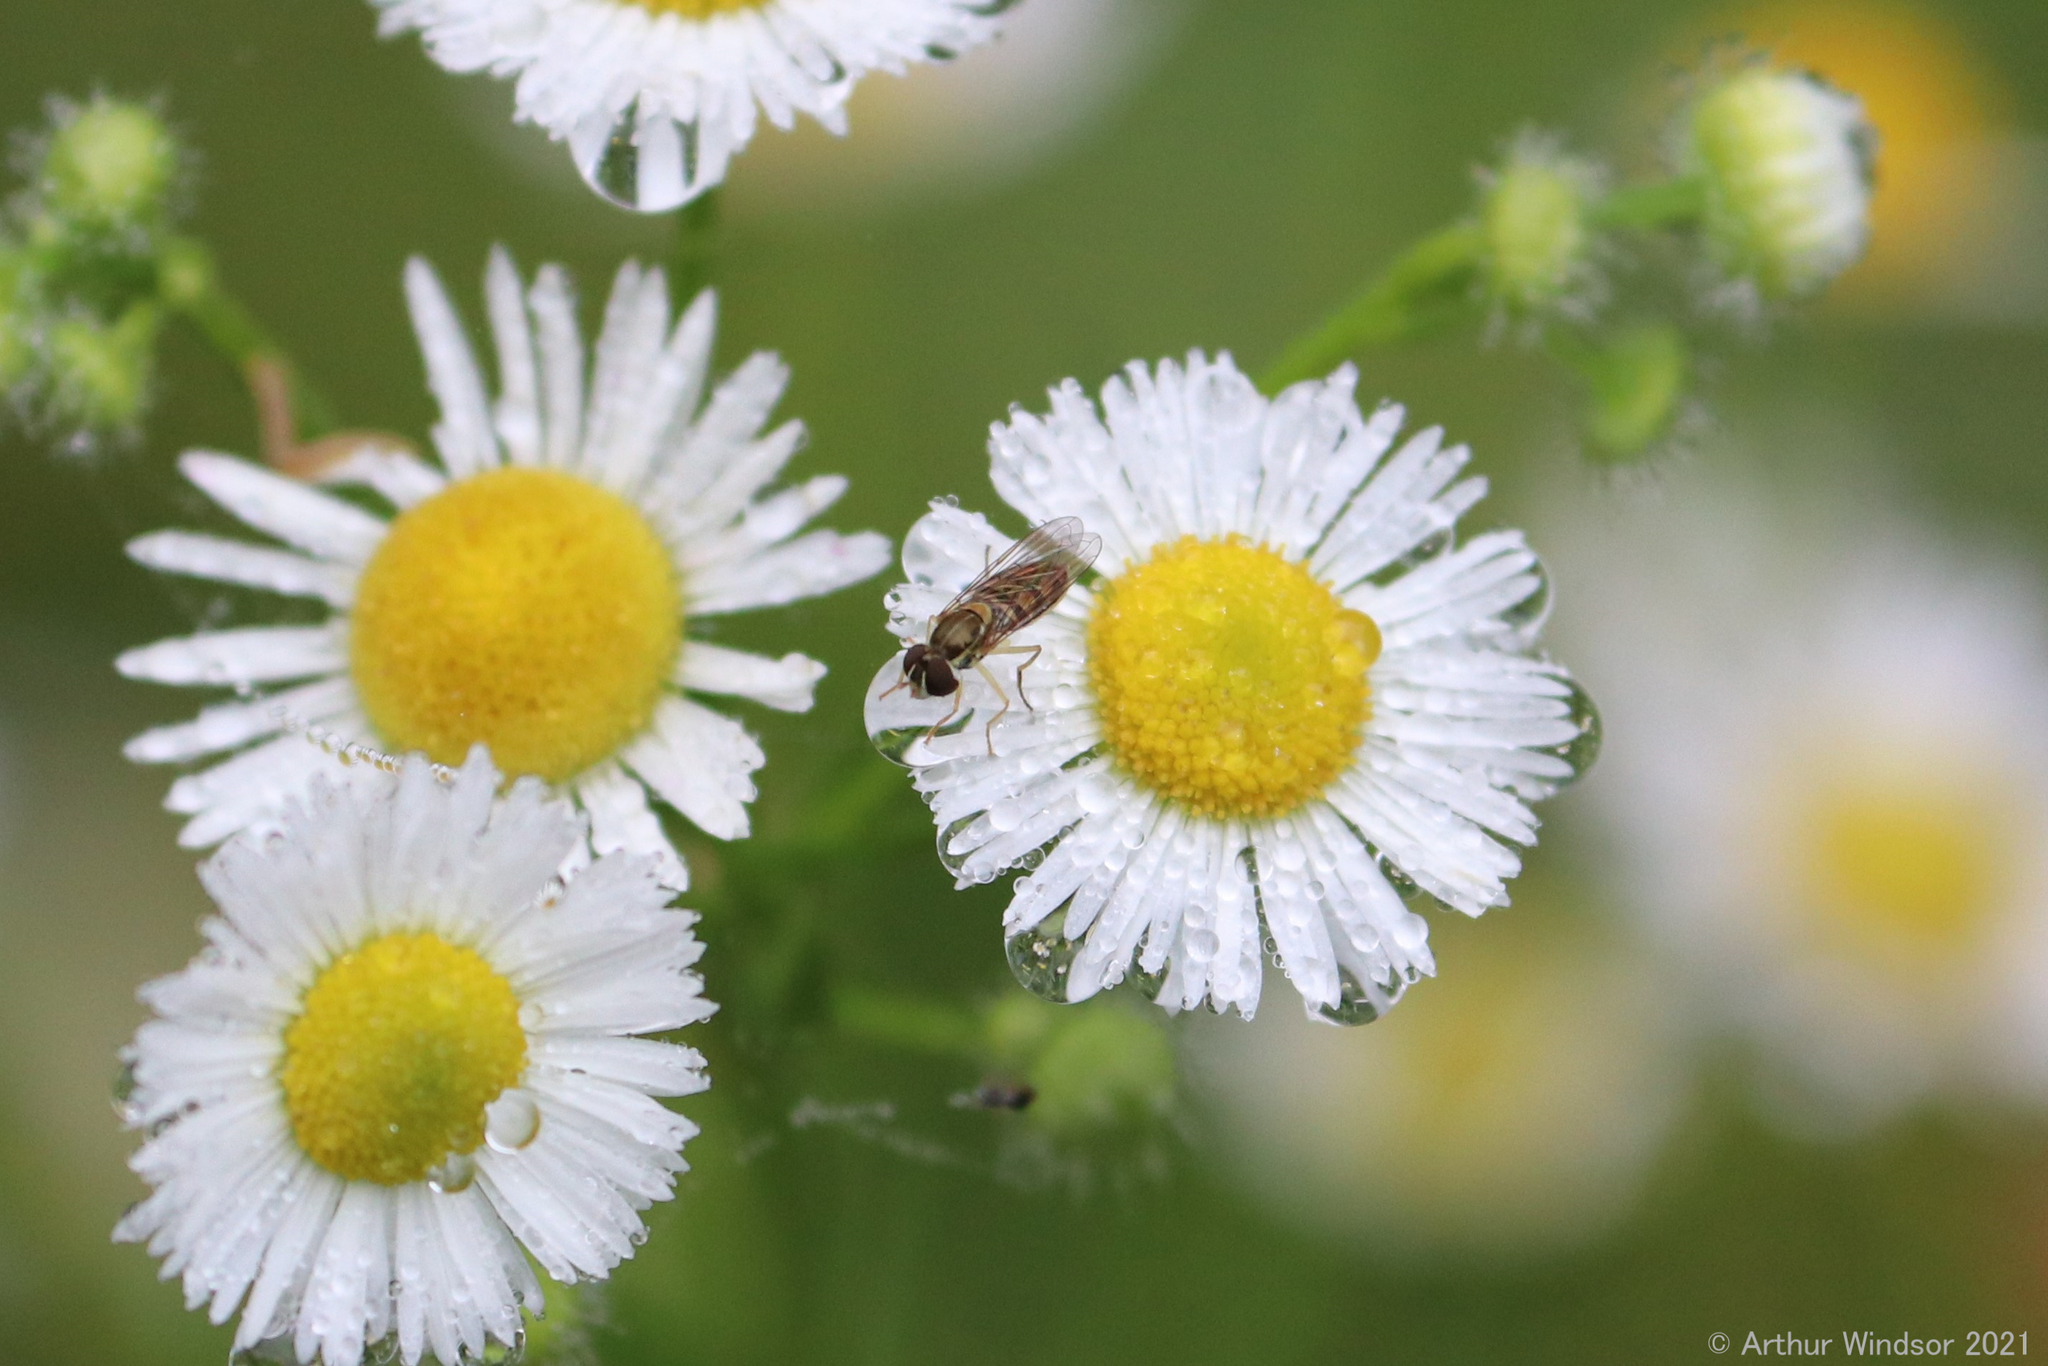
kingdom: Animalia
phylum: Arthropoda
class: Insecta
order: Diptera
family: Syrphidae
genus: Toxomerus
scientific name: Toxomerus marginatus
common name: Syrphid fly
